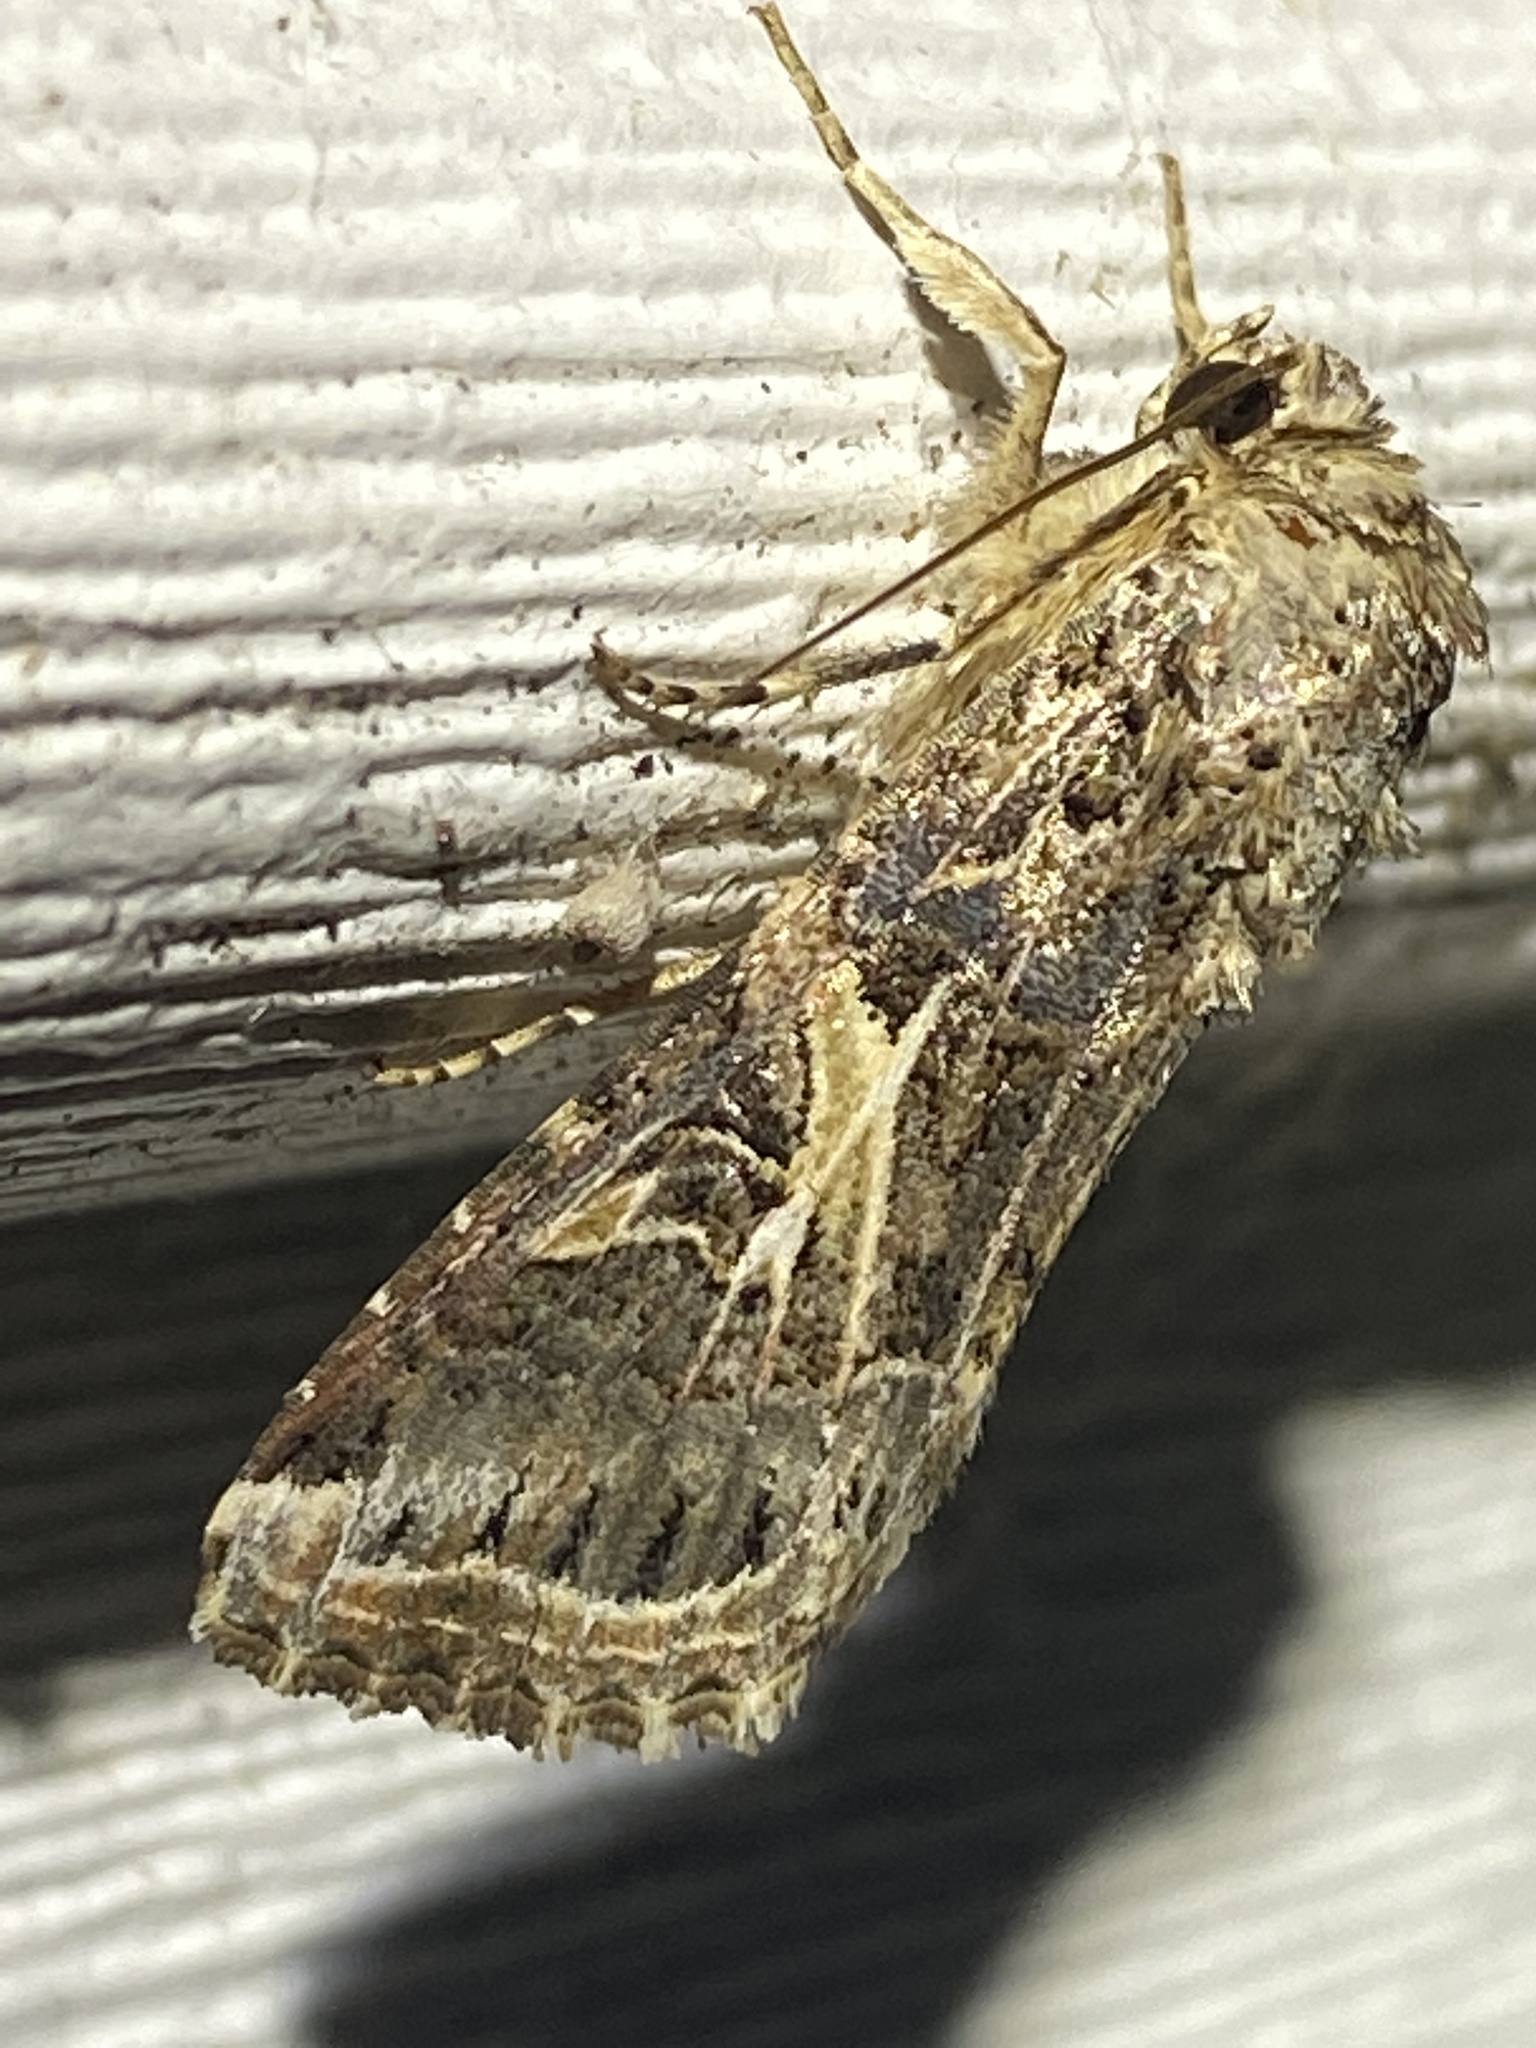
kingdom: Animalia
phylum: Arthropoda
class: Insecta
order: Lepidoptera
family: Noctuidae
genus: Spodoptera
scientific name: Spodoptera ornithogalli
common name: Yellow-striped armyworm
